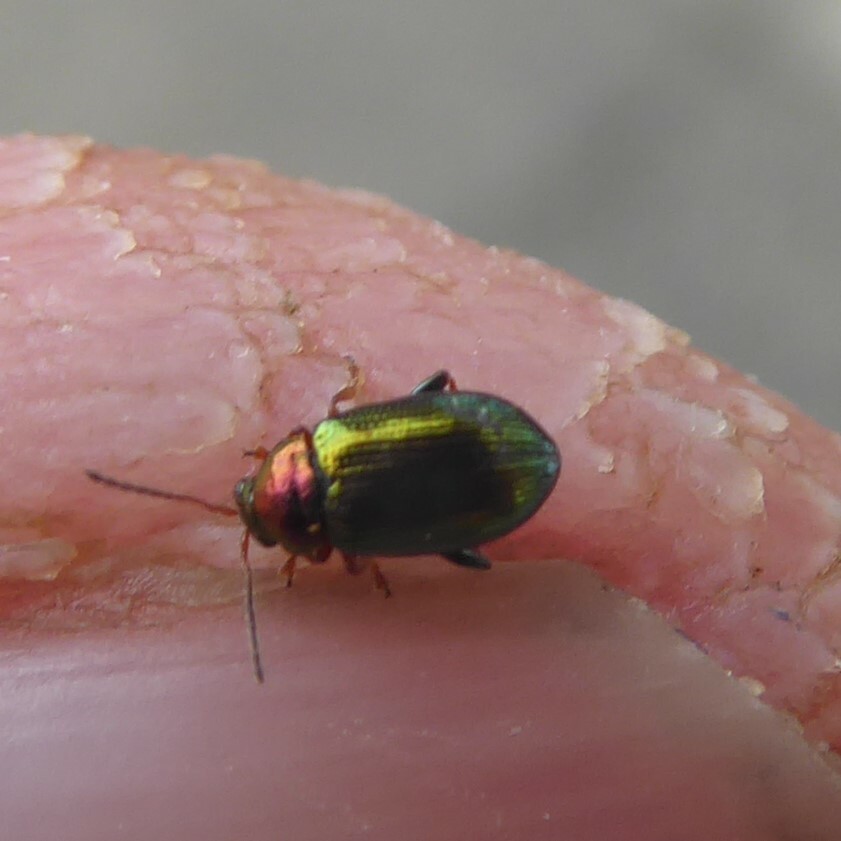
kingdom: Animalia
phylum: Arthropoda
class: Insecta
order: Coleoptera
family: Chrysomelidae
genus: Crepidodera
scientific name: Crepidodera aurata
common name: Willow flea beetle
